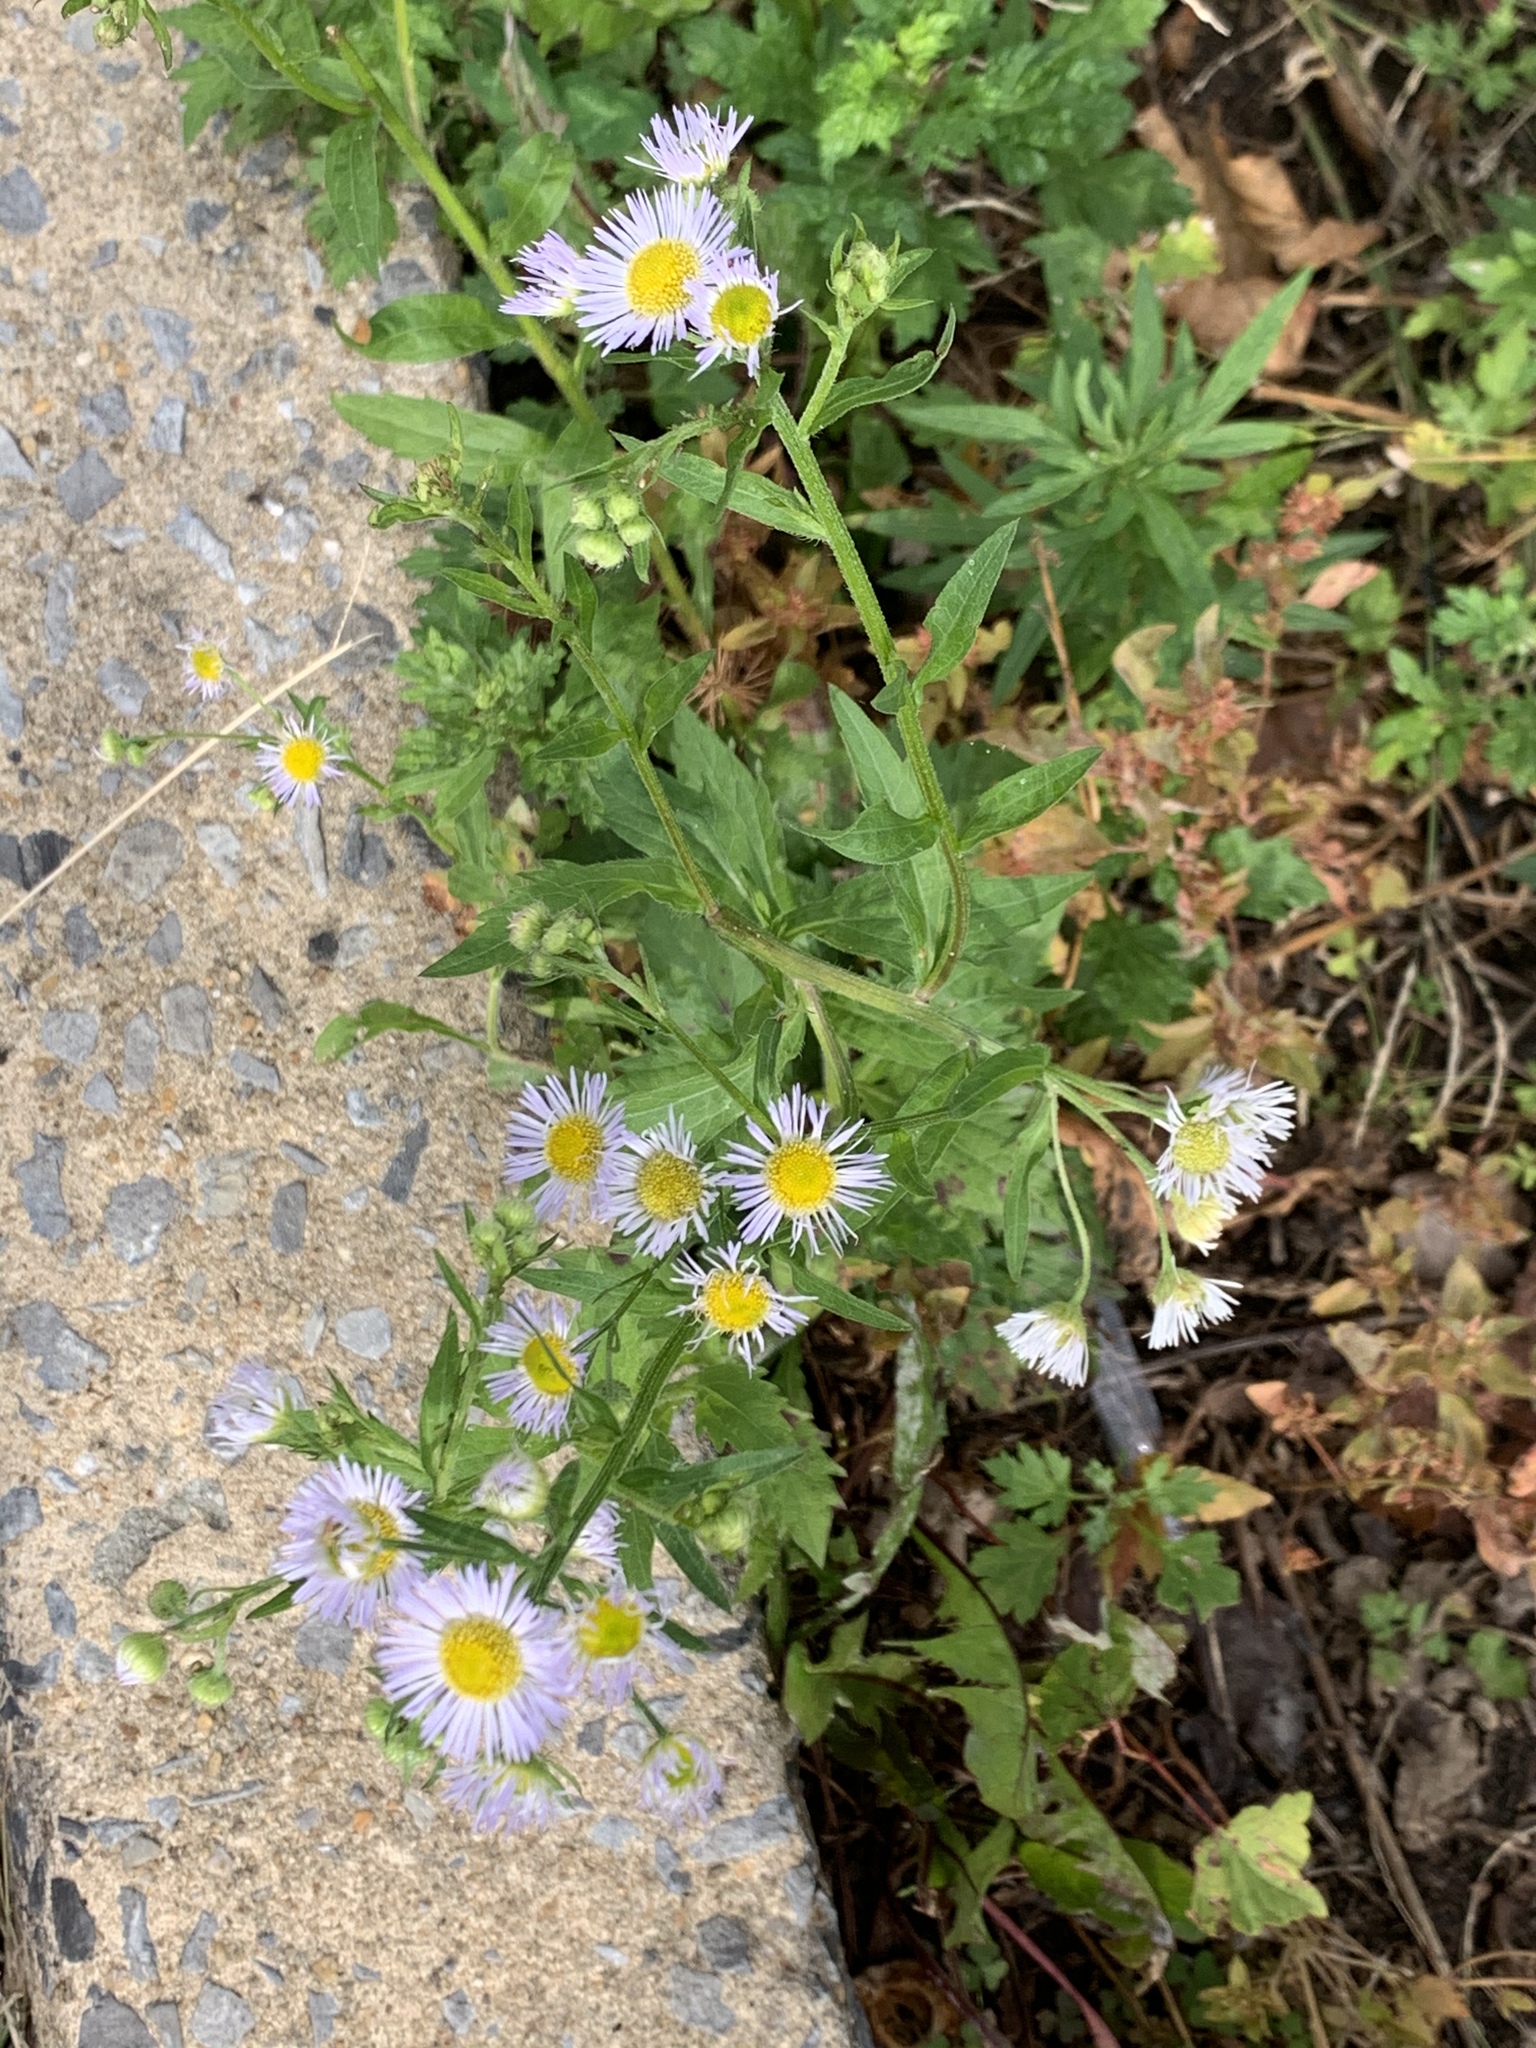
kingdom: Plantae
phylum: Tracheophyta
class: Magnoliopsida
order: Asterales
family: Asteraceae
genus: Erigeron
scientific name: Erigeron annuus
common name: Tall fleabane
